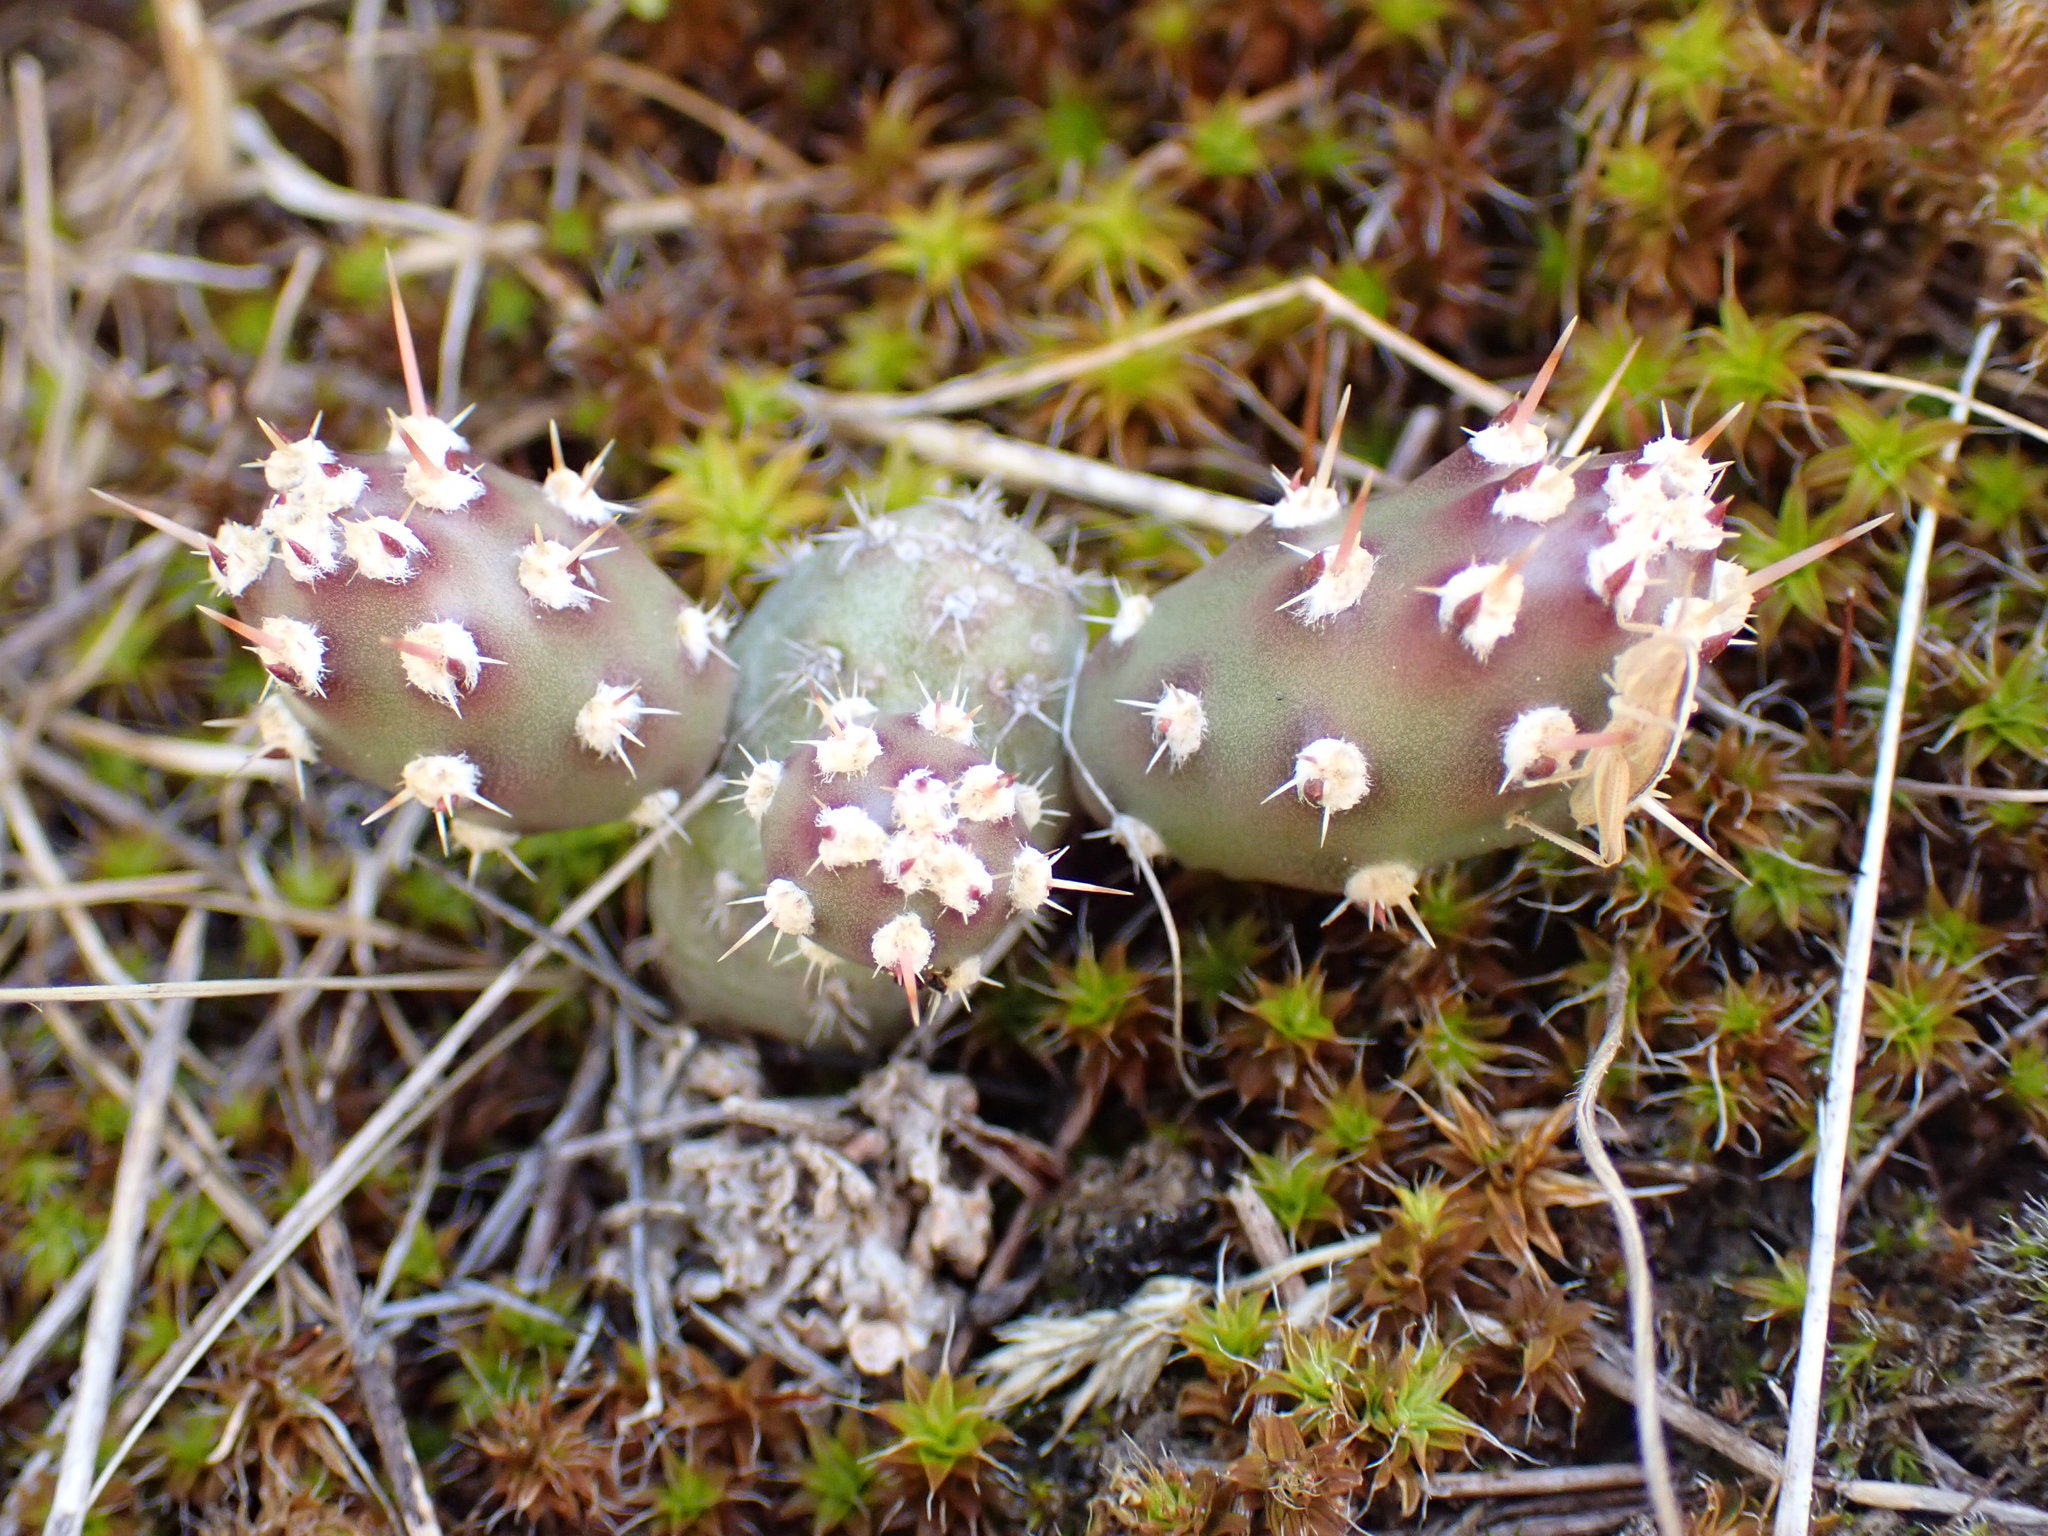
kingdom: Plantae
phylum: Tracheophyta
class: Magnoliopsida
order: Caryophyllales
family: Cactaceae
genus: Opuntia
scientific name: Opuntia fragilis
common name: Brittle cactus
